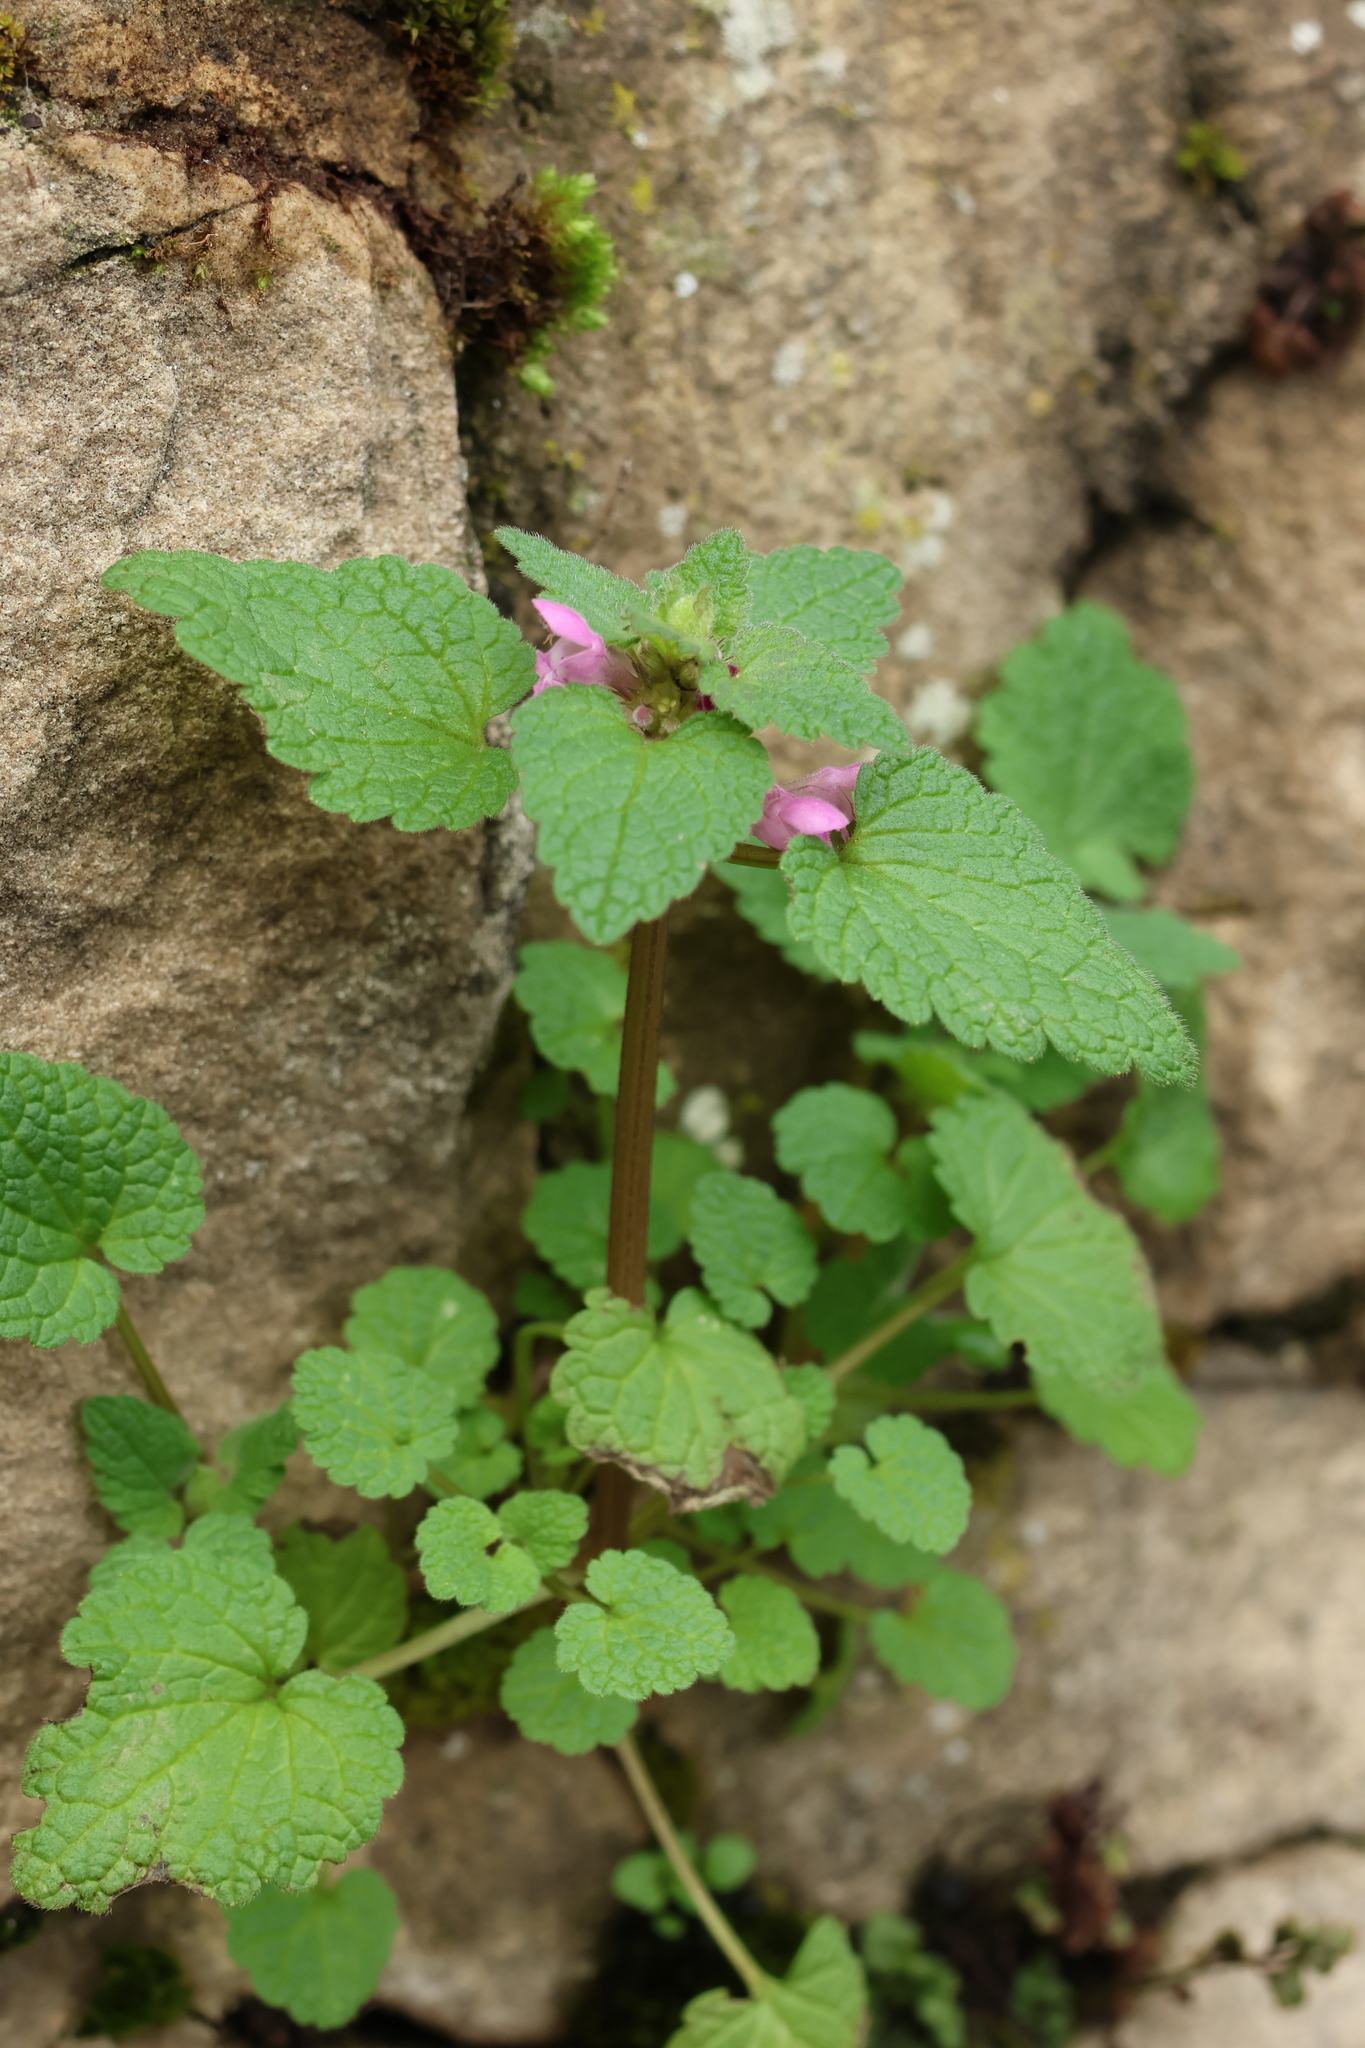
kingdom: Plantae
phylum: Tracheophyta
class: Magnoliopsida
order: Lamiales
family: Lamiaceae
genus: Lamium
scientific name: Lamium purpureum
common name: Red dead-nettle
